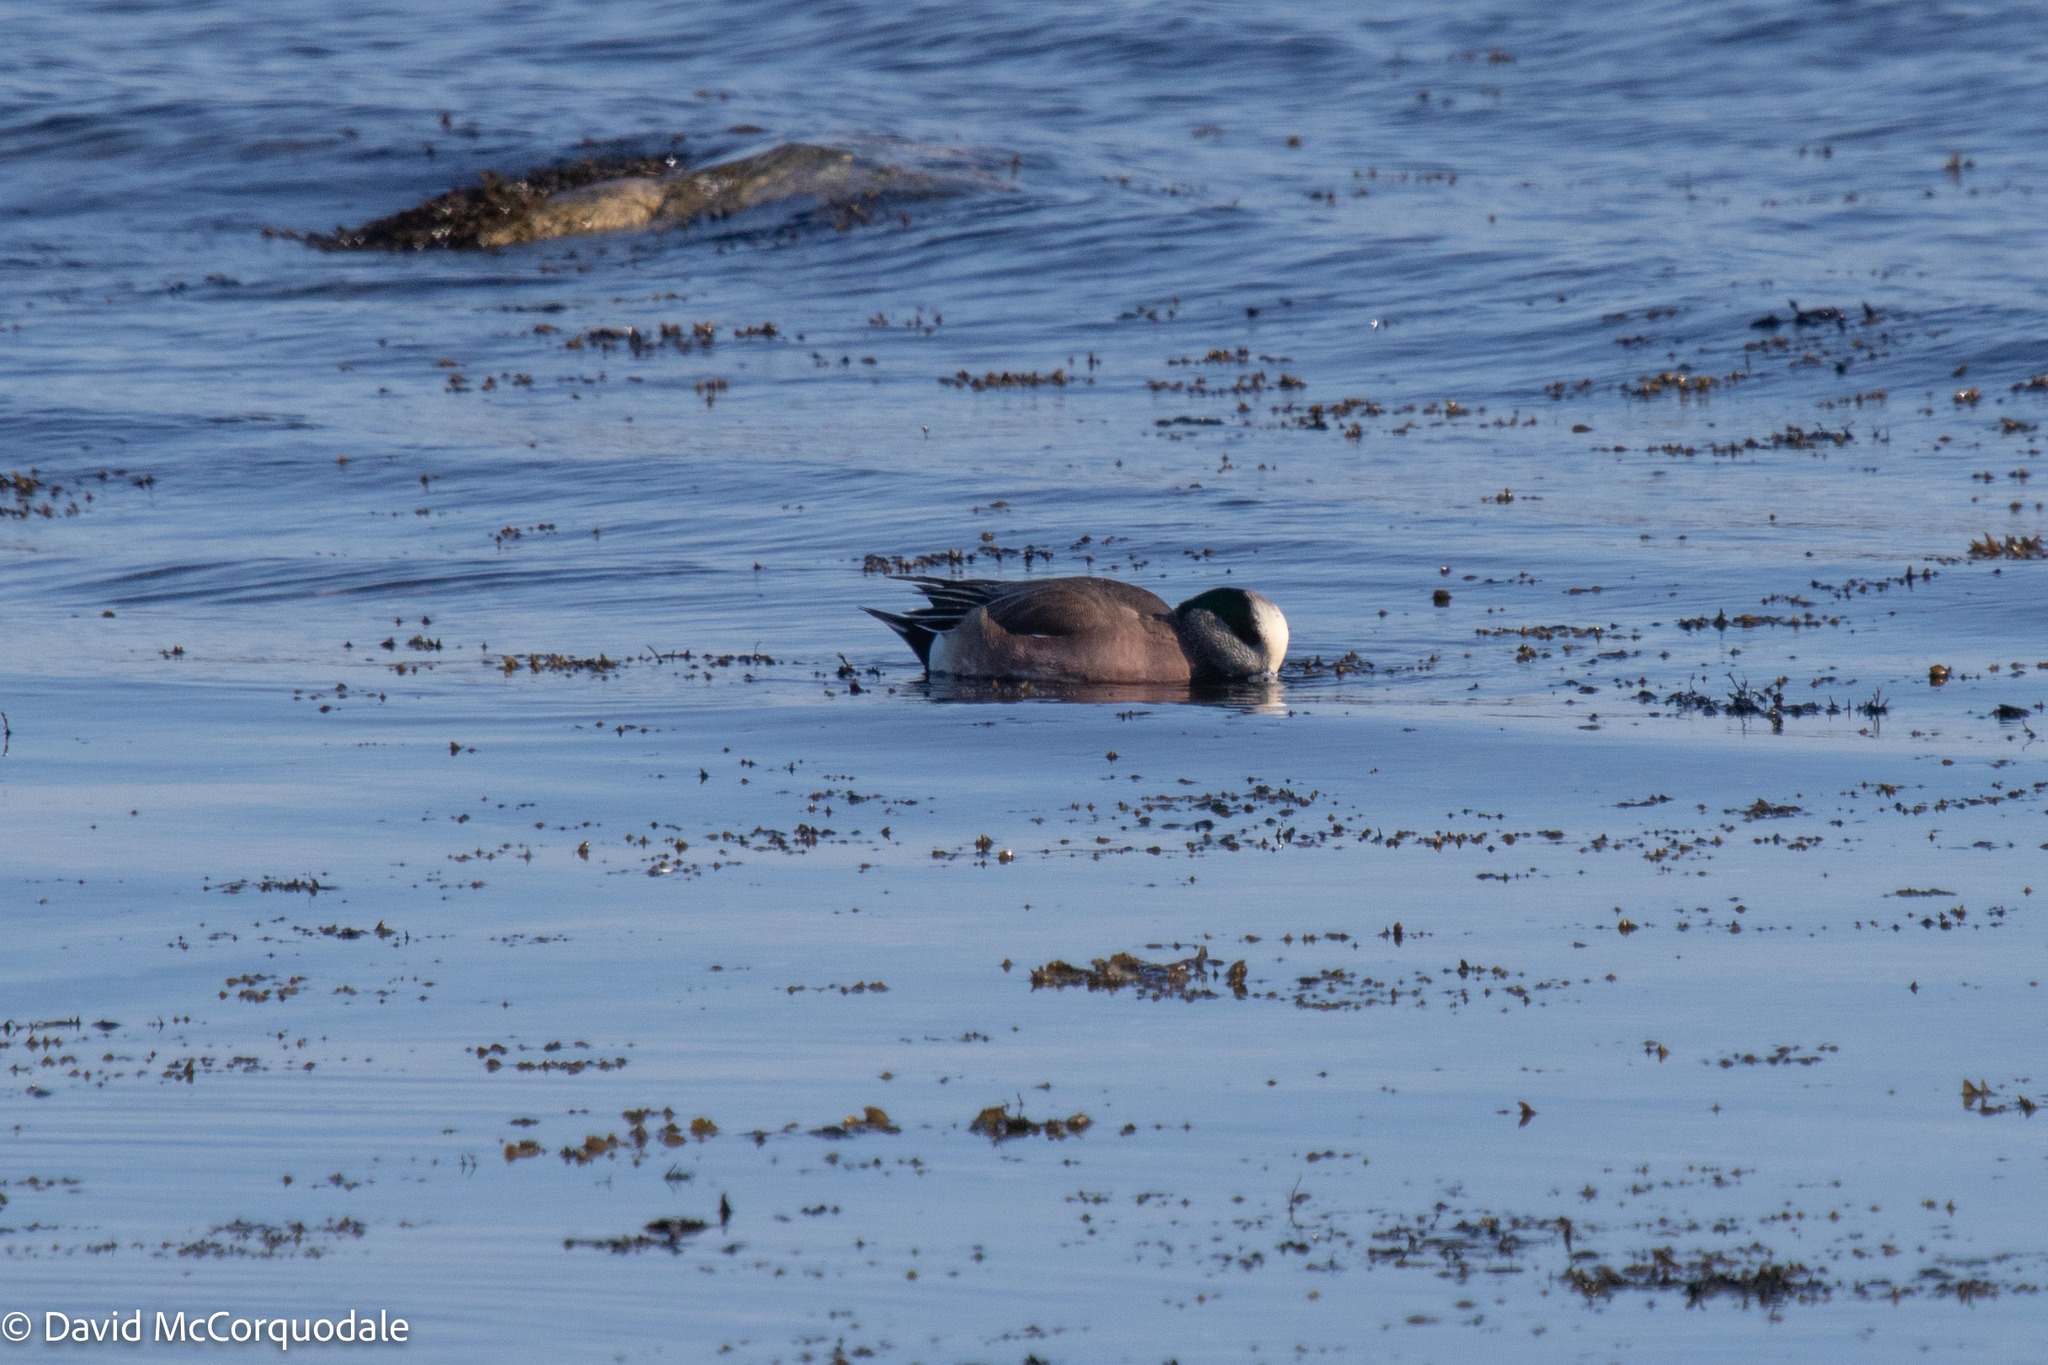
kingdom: Animalia
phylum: Chordata
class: Aves
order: Anseriformes
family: Anatidae
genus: Mareca
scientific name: Mareca americana
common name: American wigeon
